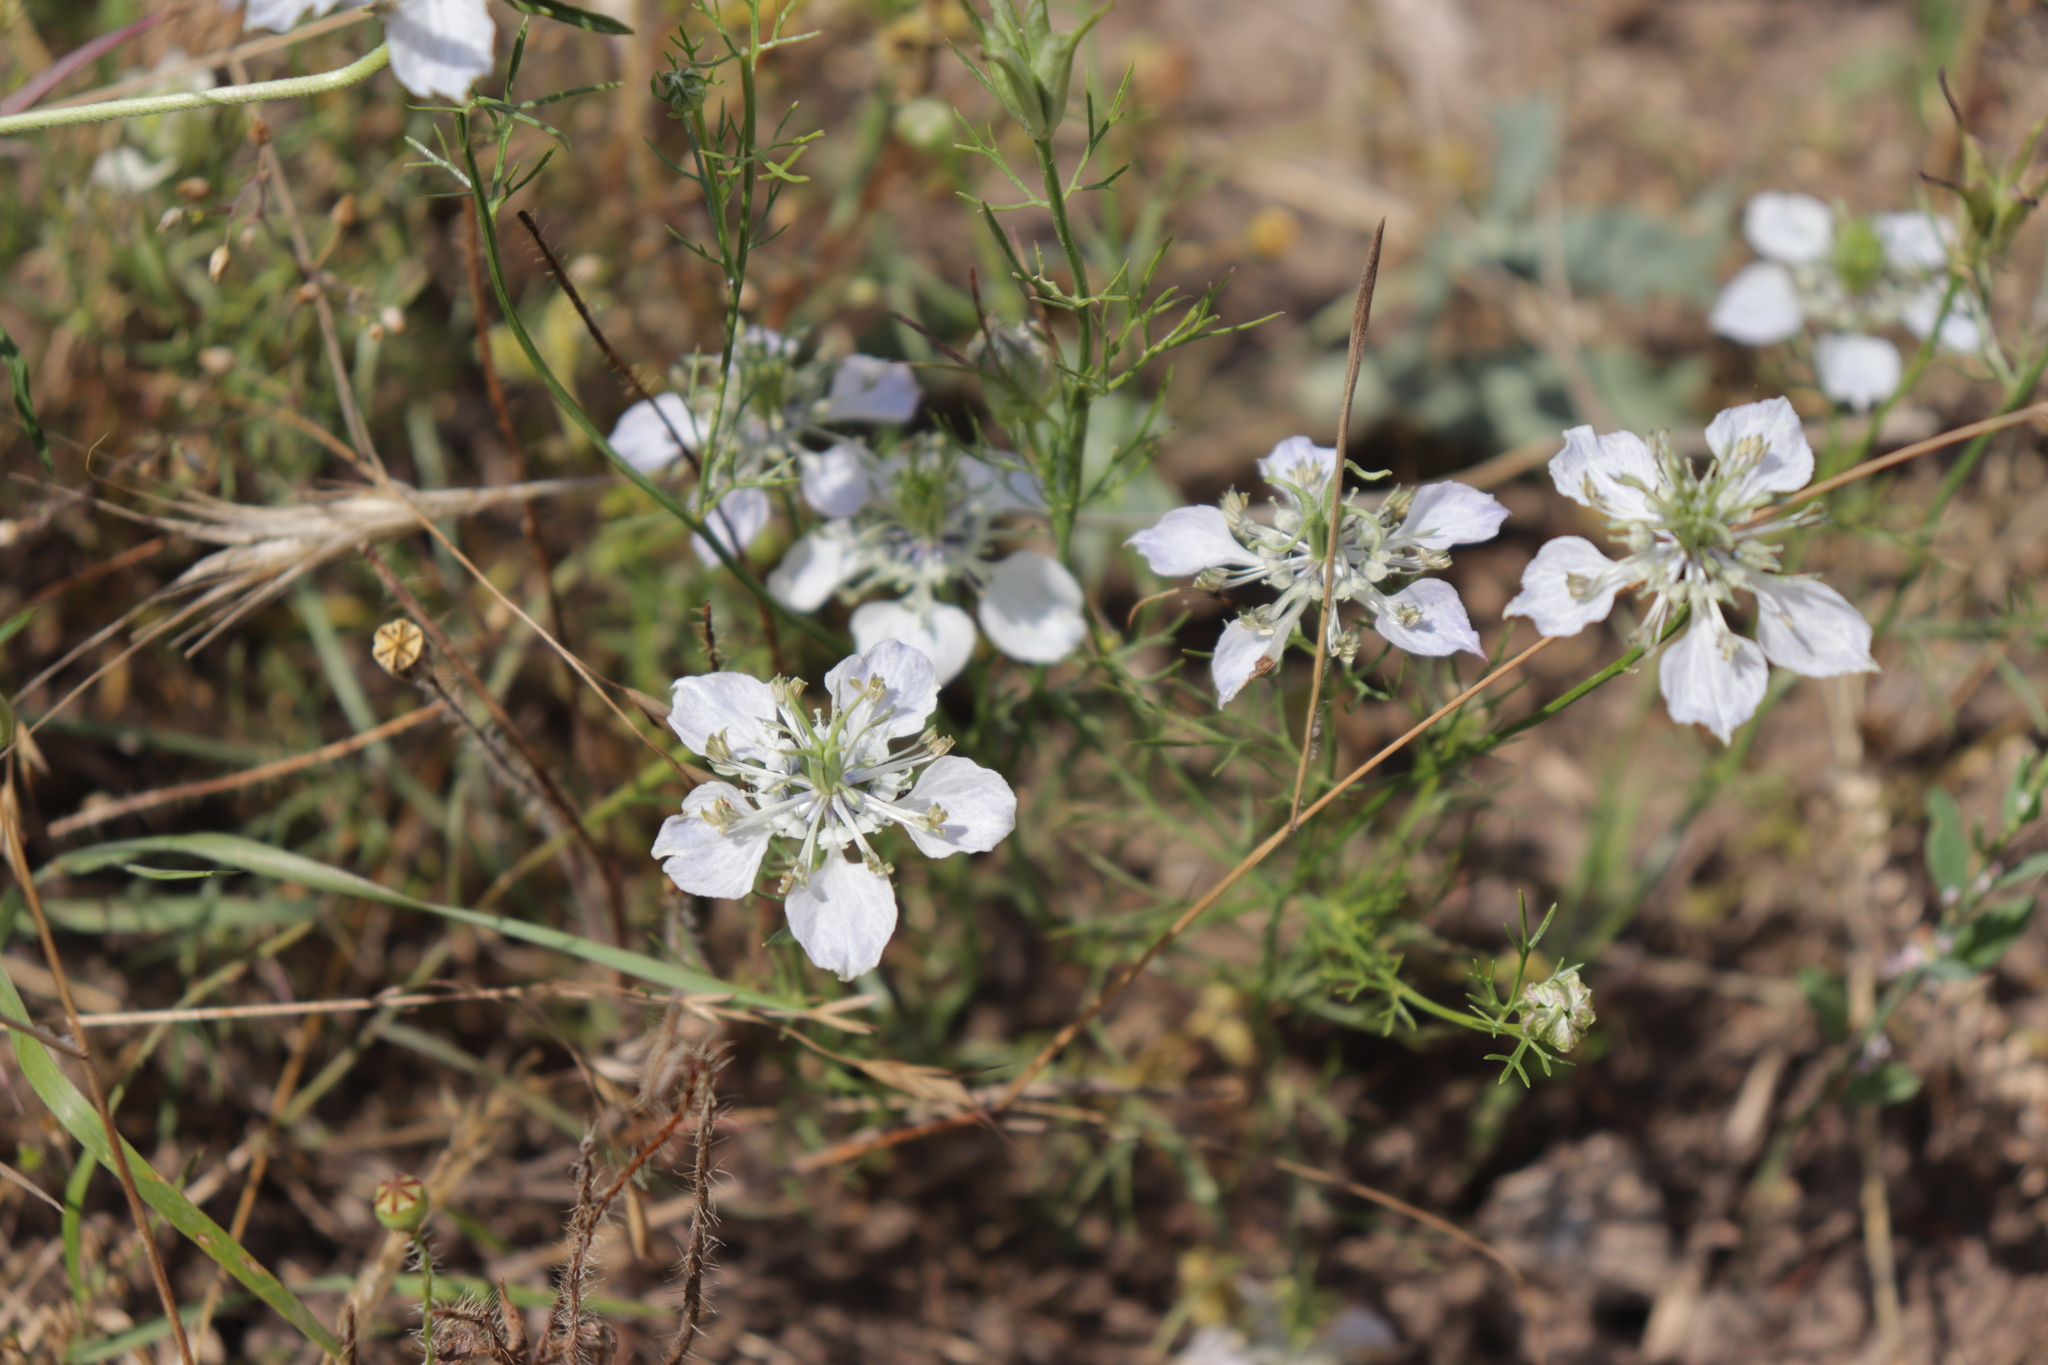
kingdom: Plantae
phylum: Tracheophyta
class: Magnoliopsida
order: Ranunculales
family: Ranunculaceae
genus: Nigella
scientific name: Nigella arvensis
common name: Wild fennel-flower
